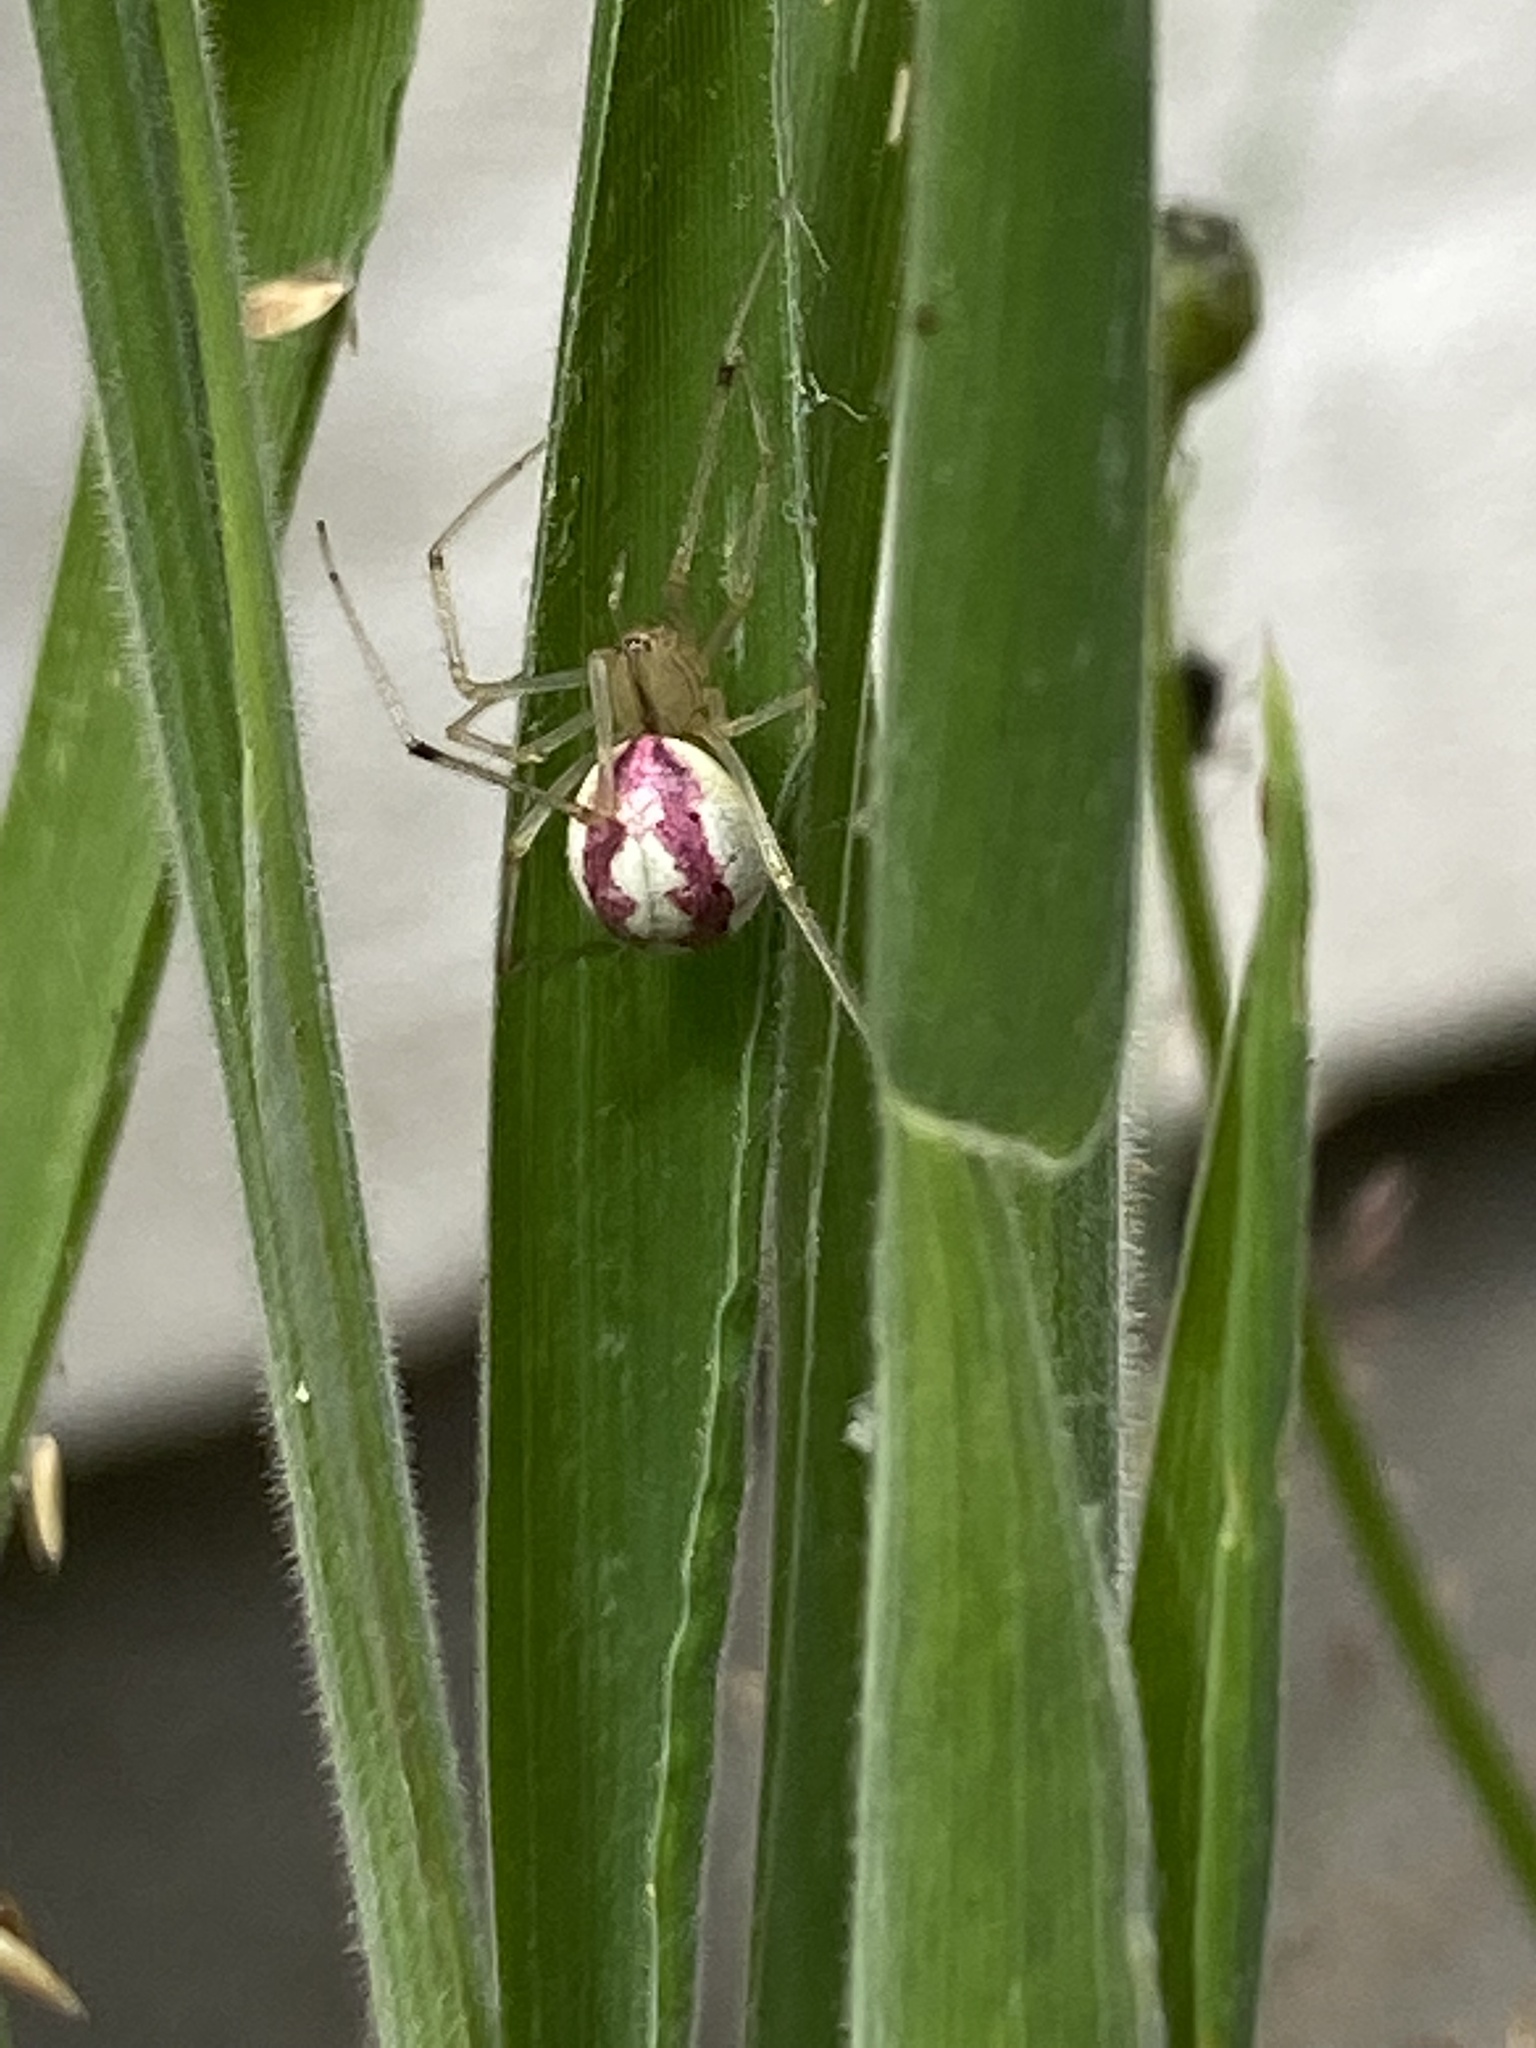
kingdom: Animalia
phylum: Arthropoda
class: Arachnida
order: Araneae
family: Theridiidae
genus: Enoplognatha
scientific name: Enoplognatha ovata
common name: Common candy-striped spider
